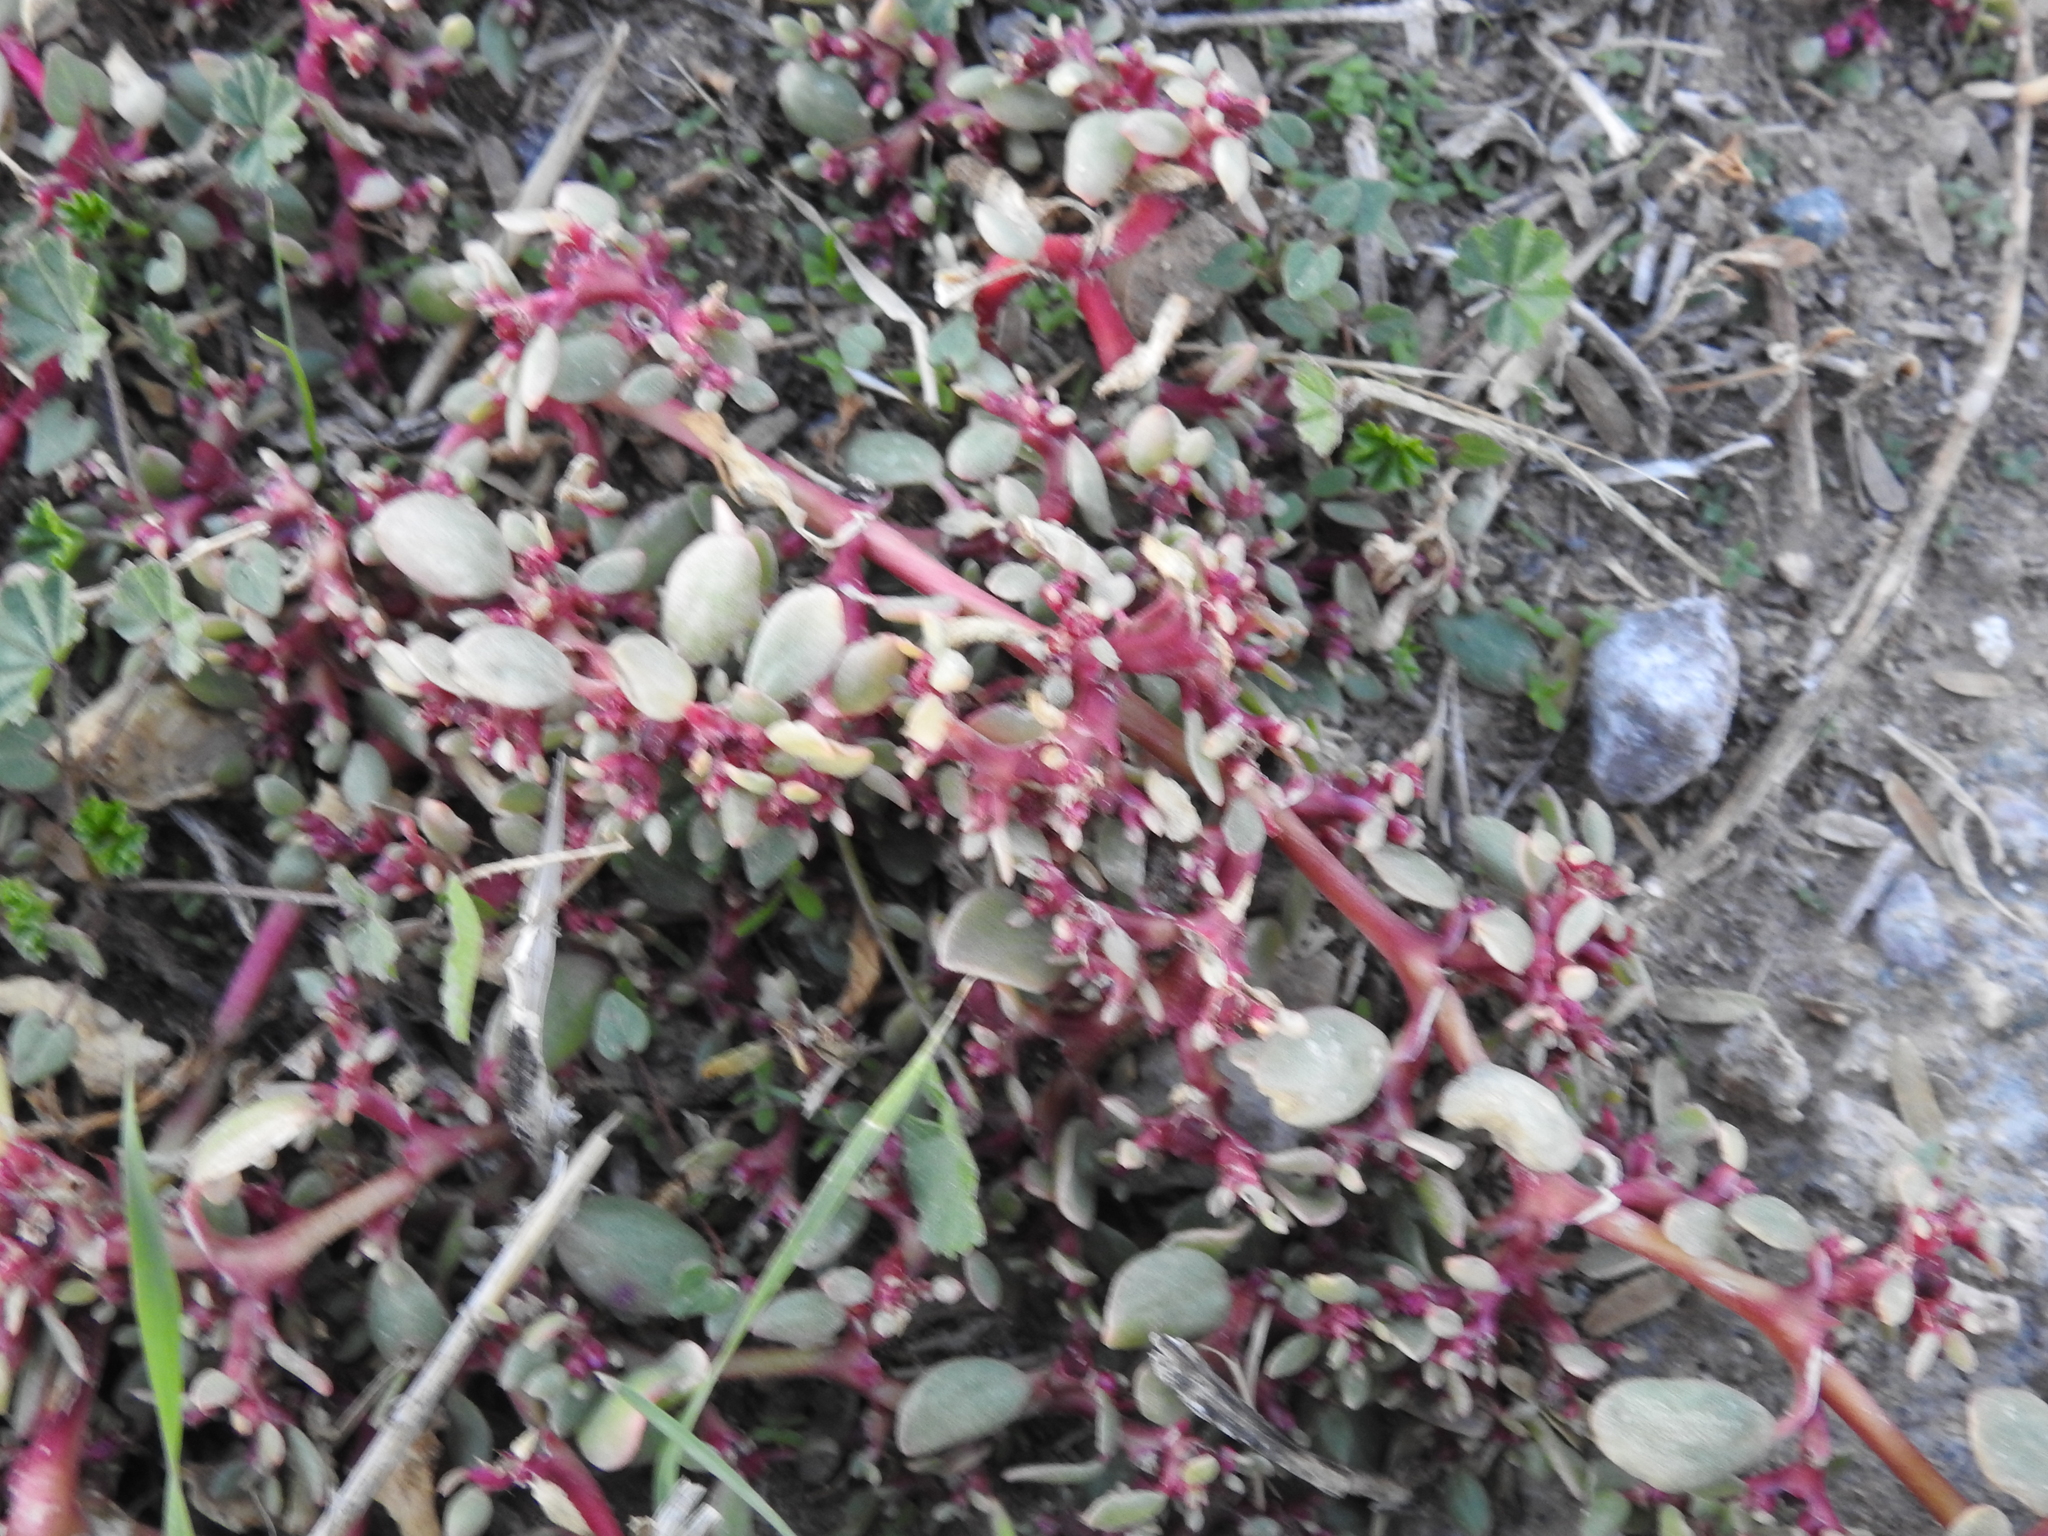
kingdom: Plantae
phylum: Tracheophyta
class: Magnoliopsida
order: Caryophyllales
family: Aizoaceae
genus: Trianthema
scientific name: Trianthema portulacastrum
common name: Desert horsepurslane
